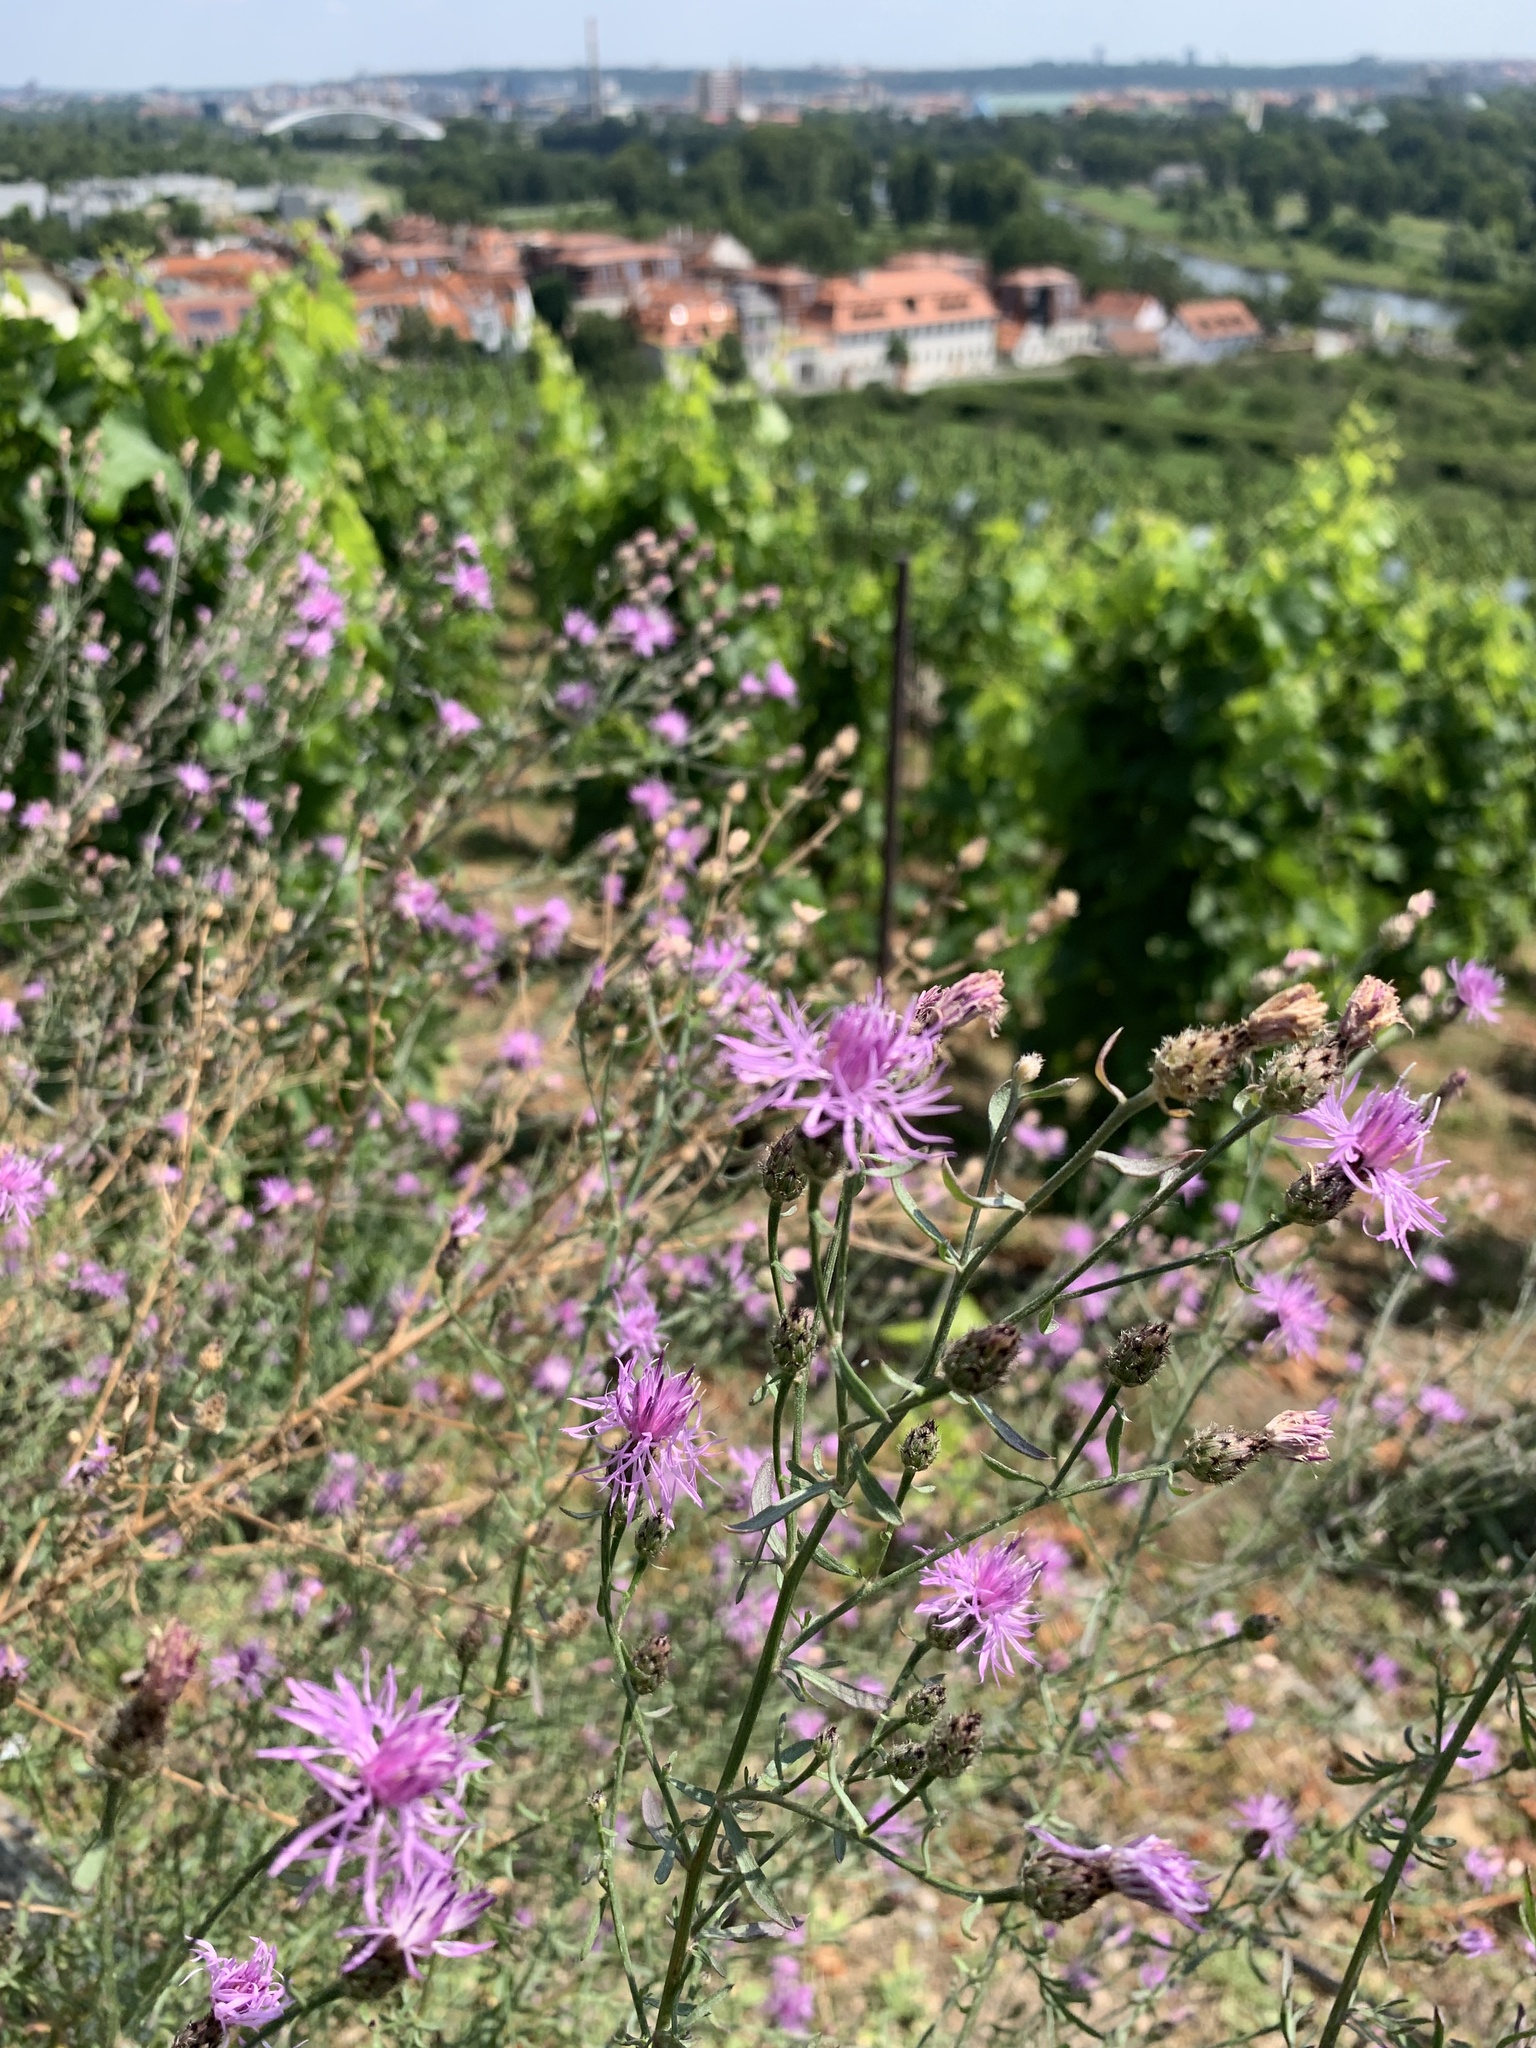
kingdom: Plantae
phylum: Tracheophyta
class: Magnoliopsida
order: Asterales
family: Asteraceae
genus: Centaurea
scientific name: Centaurea stoebe
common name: Spotted knapweed
